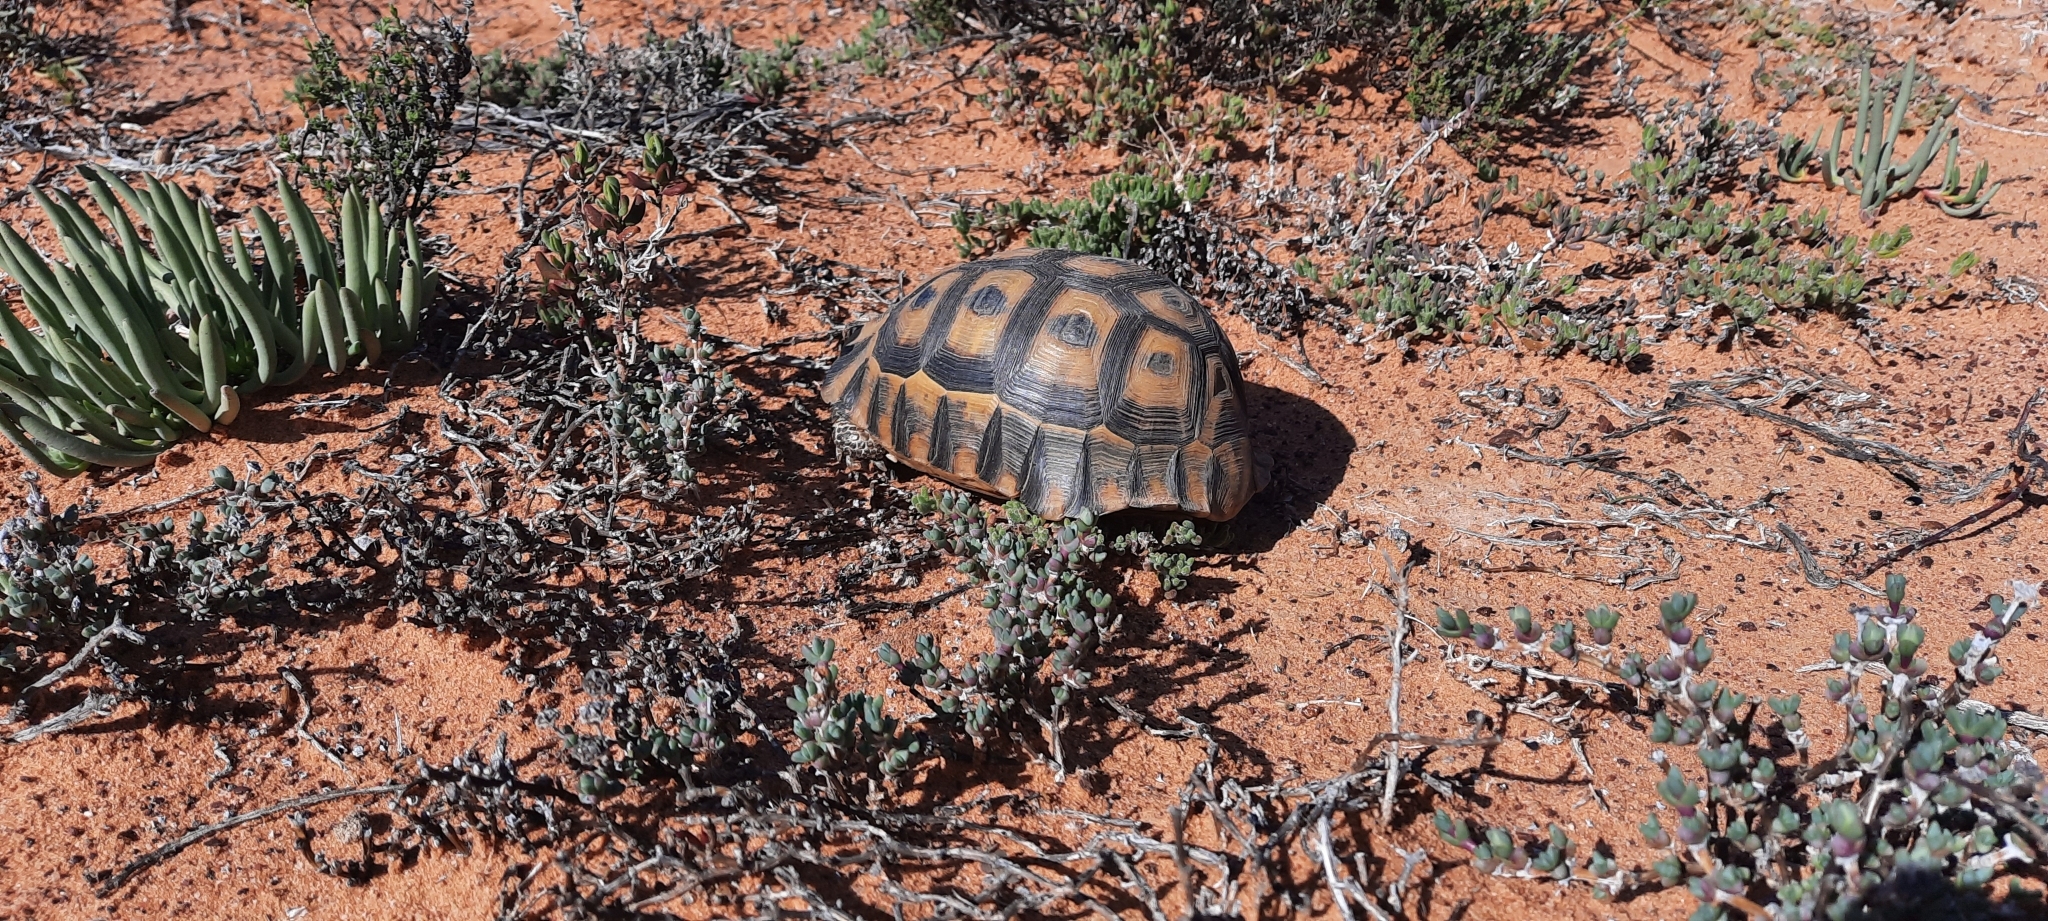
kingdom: Animalia
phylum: Chordata
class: Testudines
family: Testudinidae
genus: Chersina
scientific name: Chersina angulata
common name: South african bowsprit tortoise
